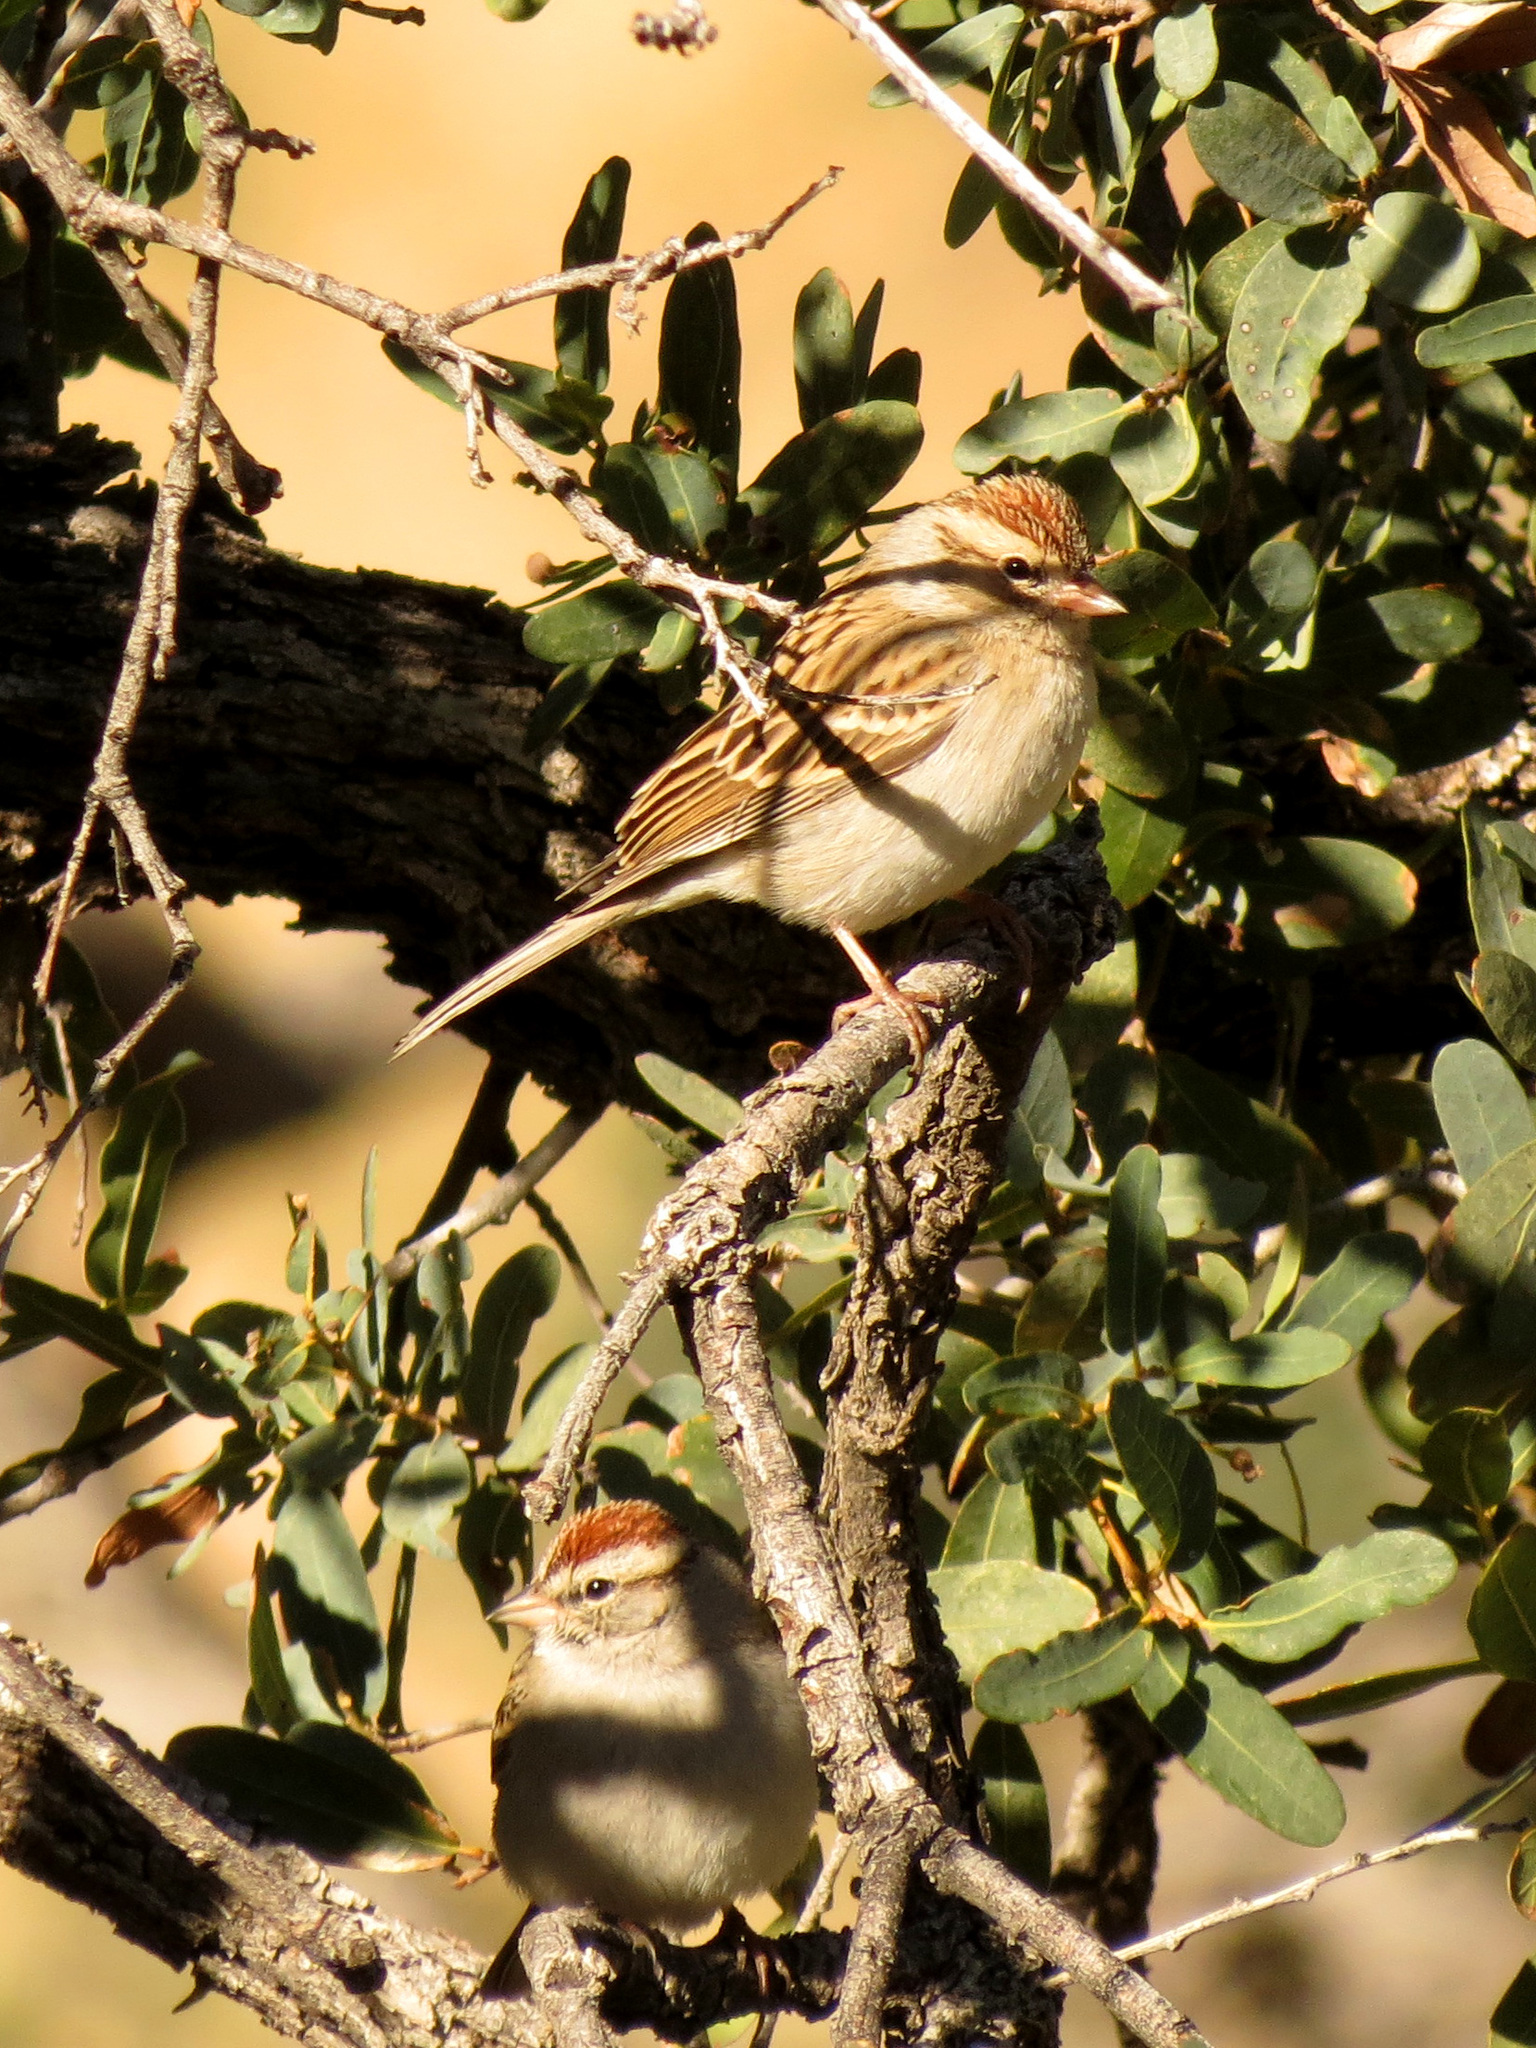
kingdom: Animalia
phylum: Chordata
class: Aves
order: Passeriformes
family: Passerellidae
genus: Spizella
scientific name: Spizella passerina
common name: Chipping sparrow
